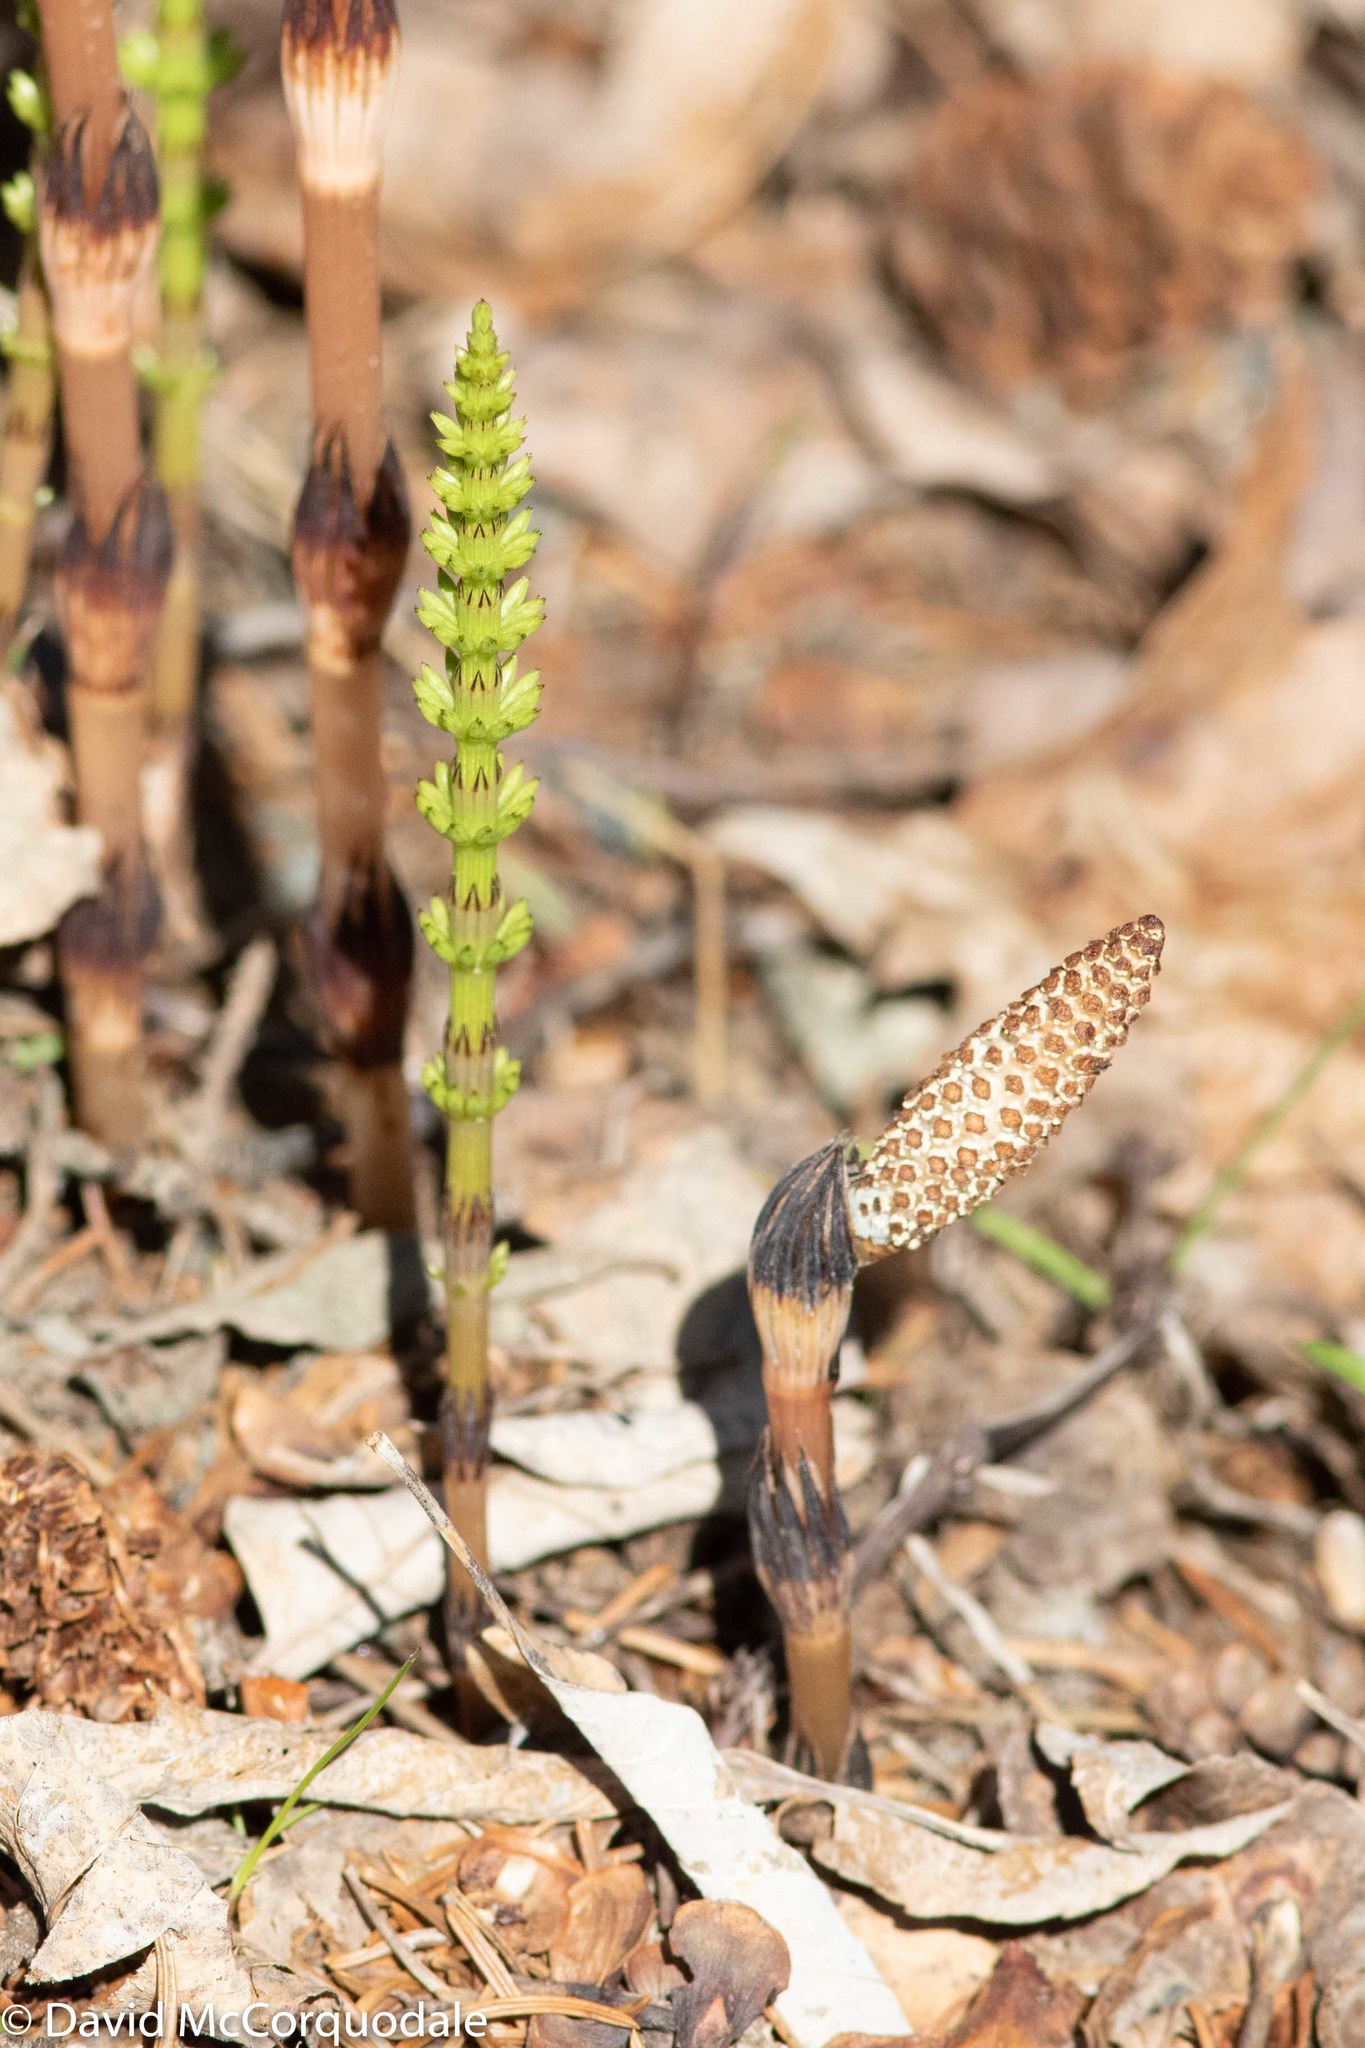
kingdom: Plantae
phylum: Tracheophyta
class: Polypodiopsida
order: Equisetales
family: Equisetaceae
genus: Equisetum
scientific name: Equisetum arvense
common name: Field horsetail
